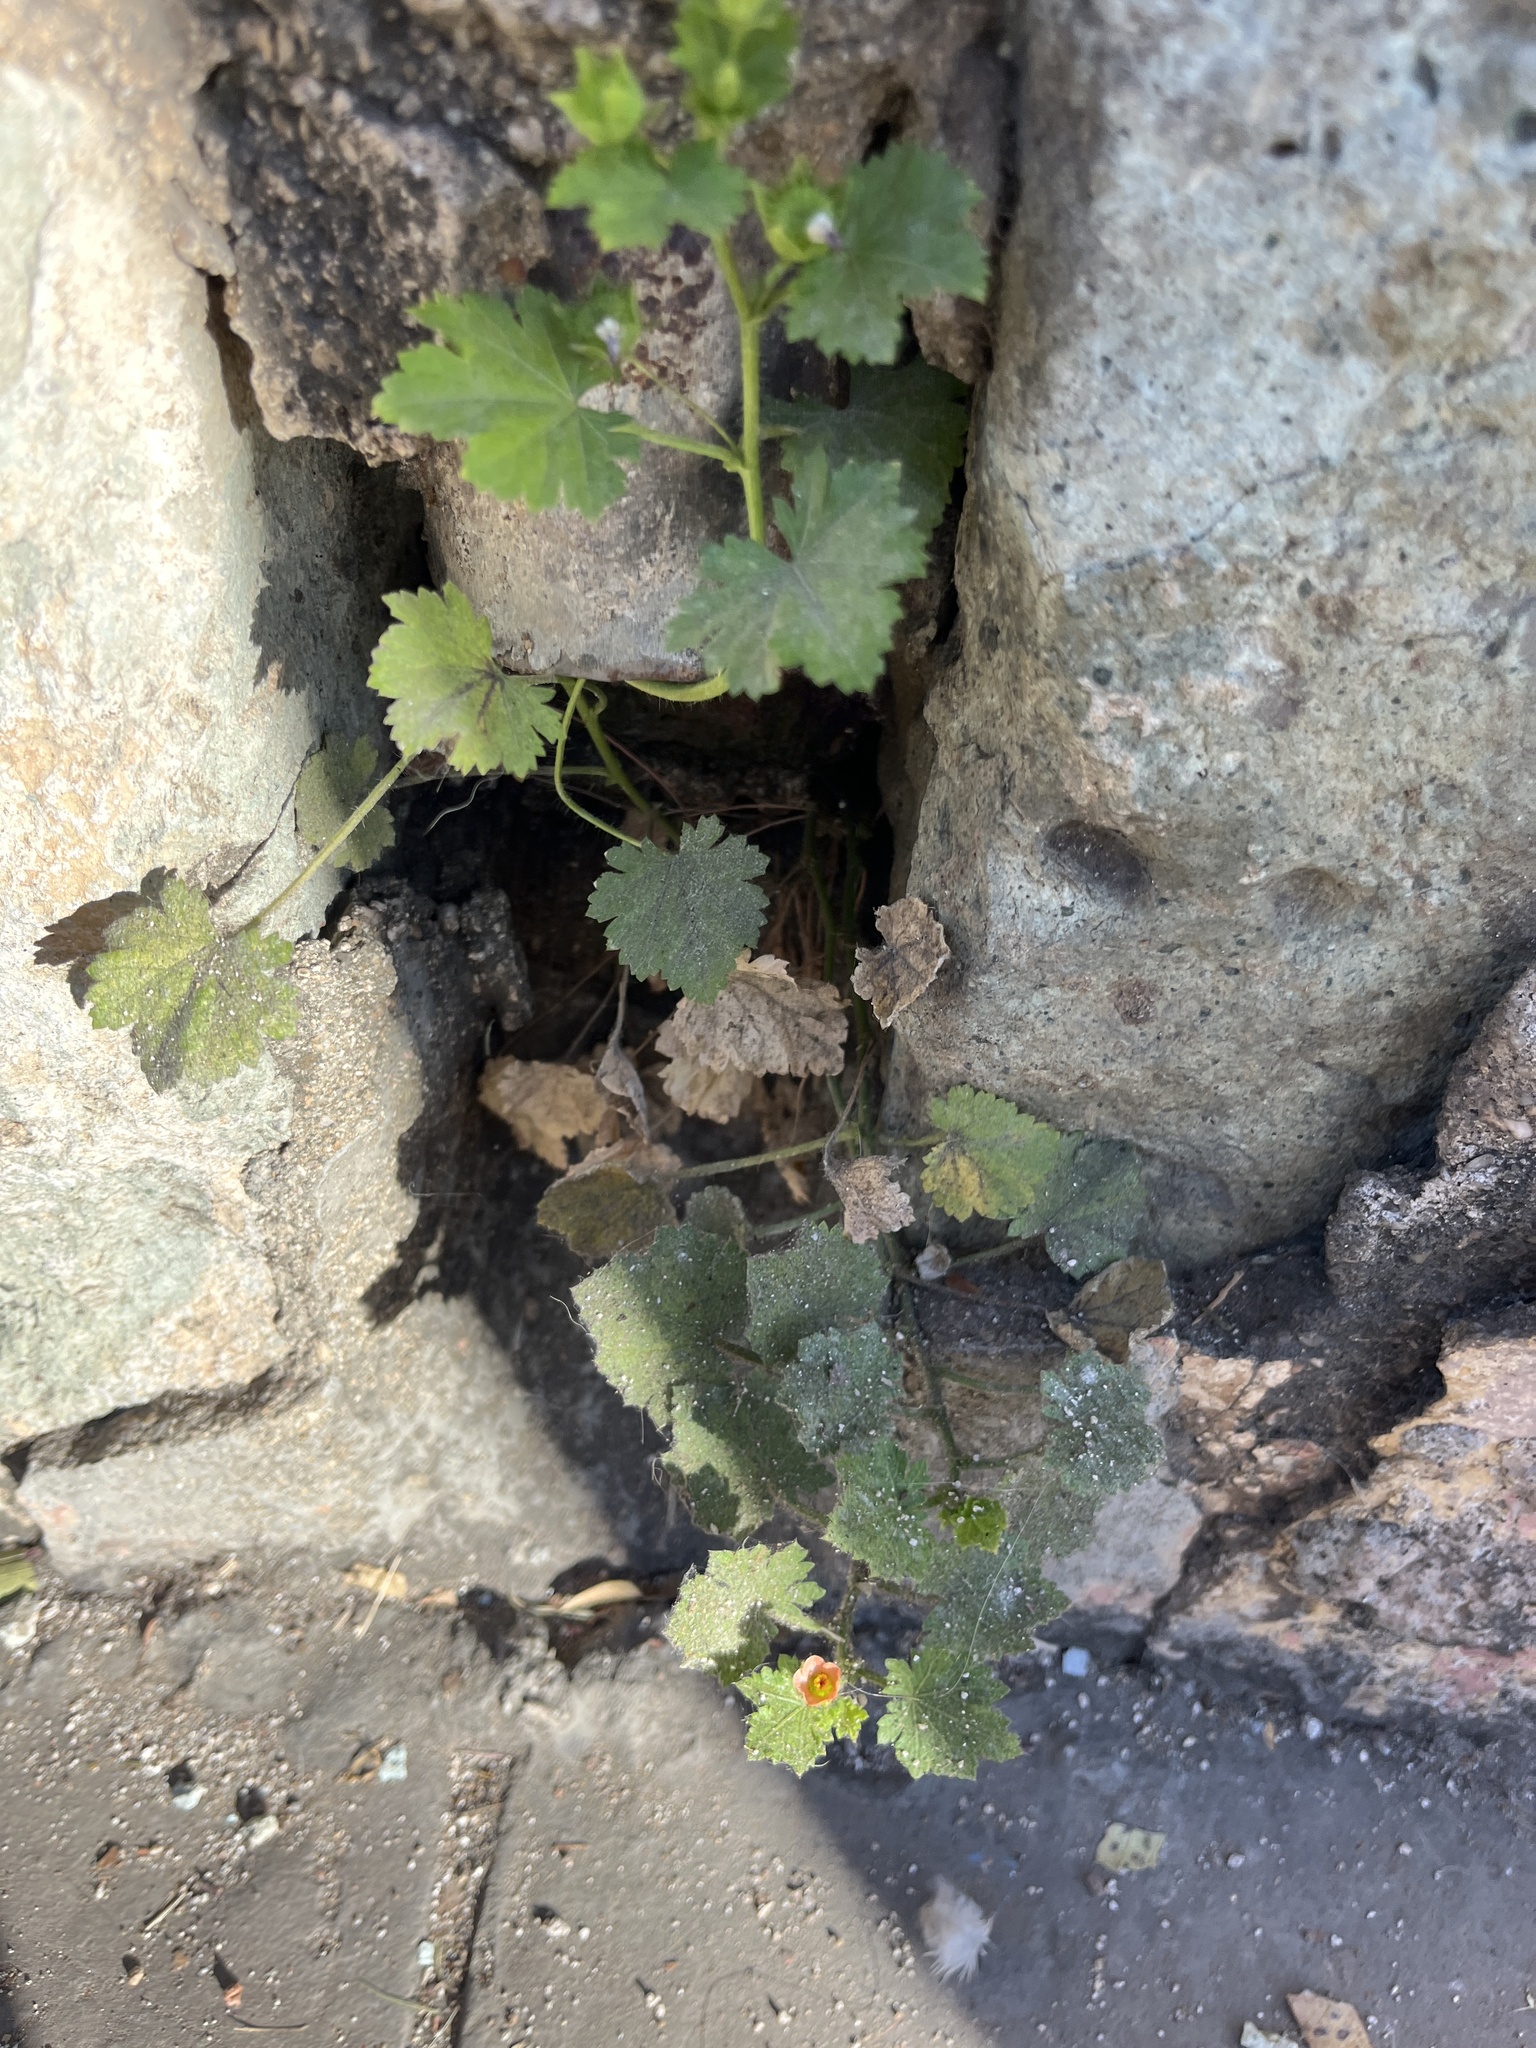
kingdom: Plantae
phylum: Tracheophyta
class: Magnoliopsida
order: Malvales
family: Malvaceae
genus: Modiola
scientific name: Modiola caroliniana
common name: Carolina bristlemallow
